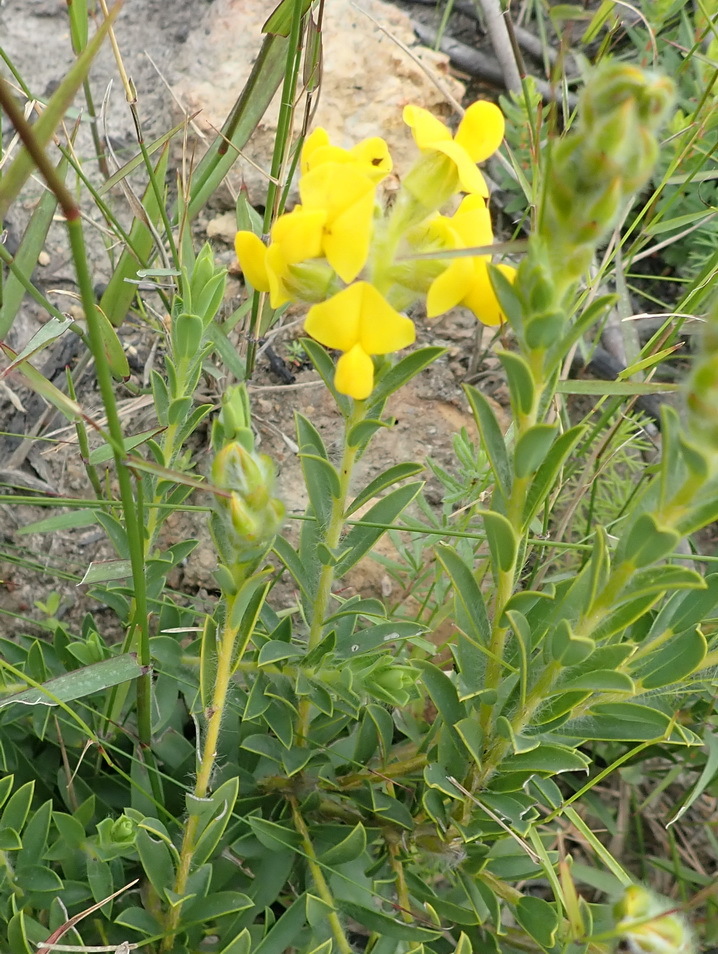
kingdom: Plantae
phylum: Tracheophyta
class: Magnoliopsida
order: Fabales
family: Fabaceae
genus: Liparia
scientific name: Liparia hirsuta
